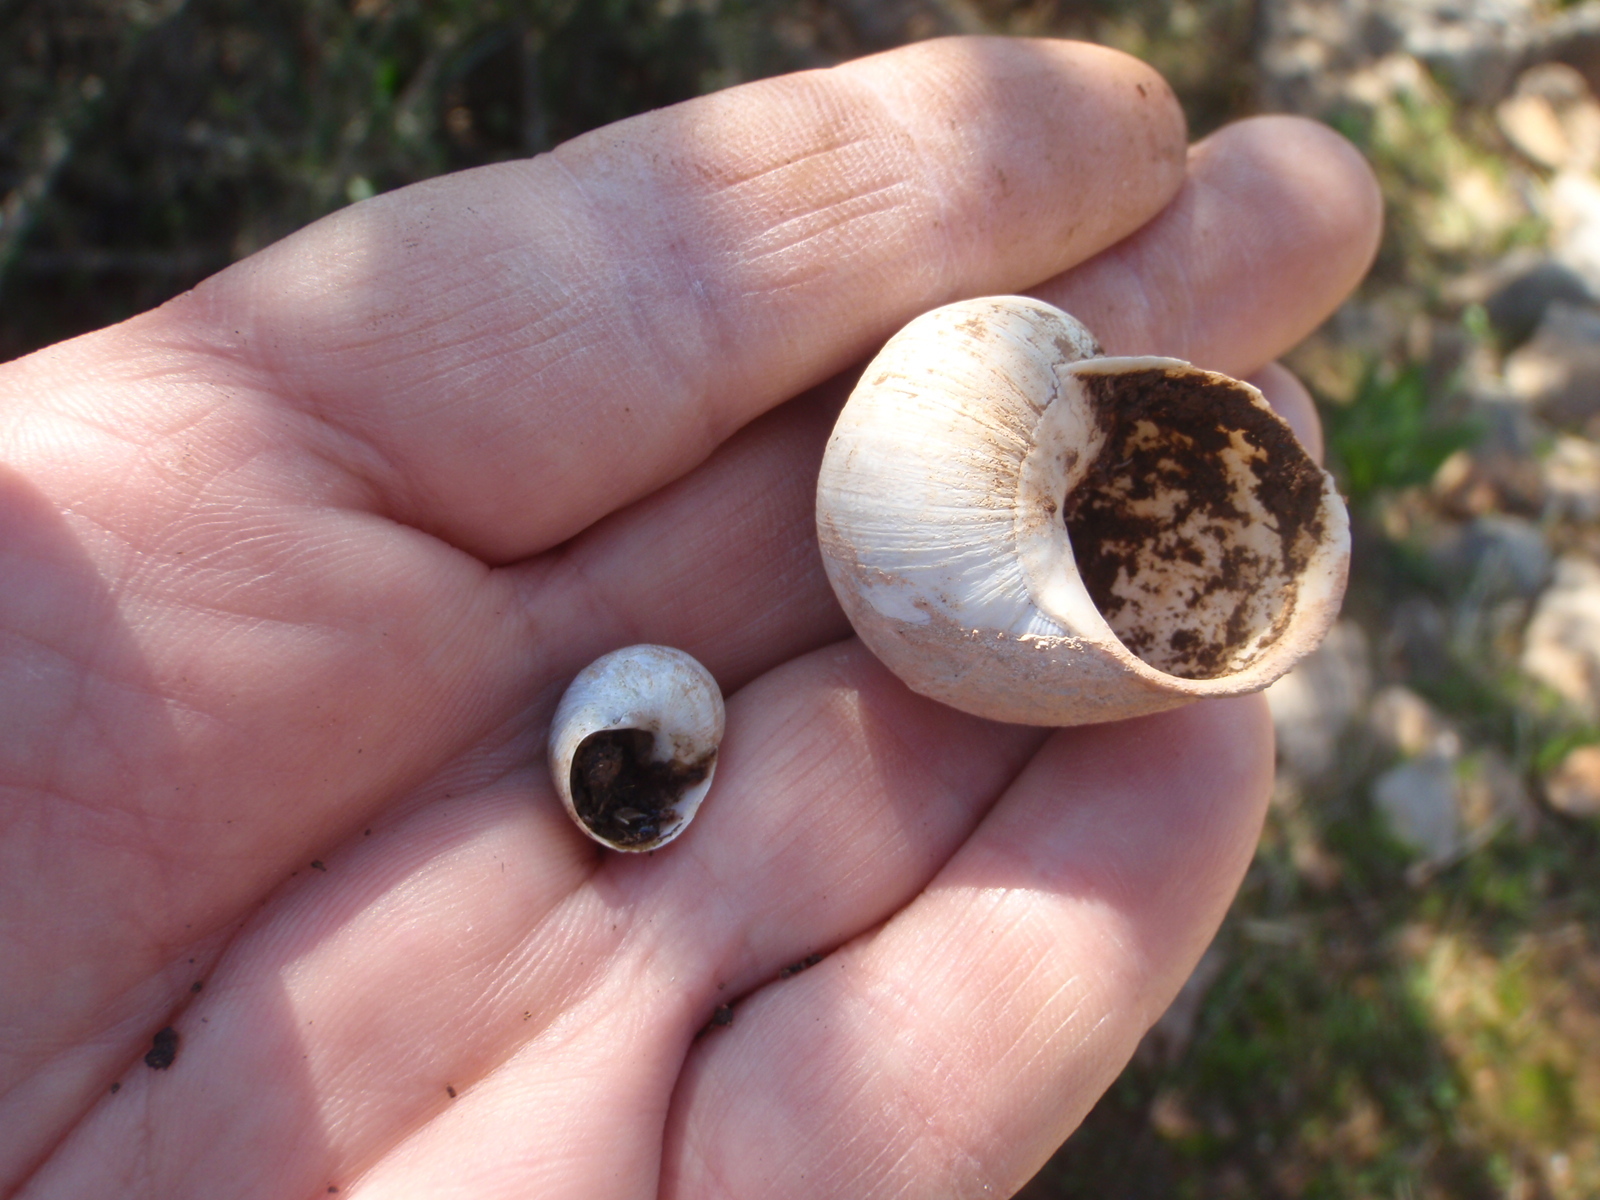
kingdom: Animalia
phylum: Mollusca
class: Gastropoda
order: Stylommatophora
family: Helicidae
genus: Cornu
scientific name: Cornu aspersum
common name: Brown garden snail
